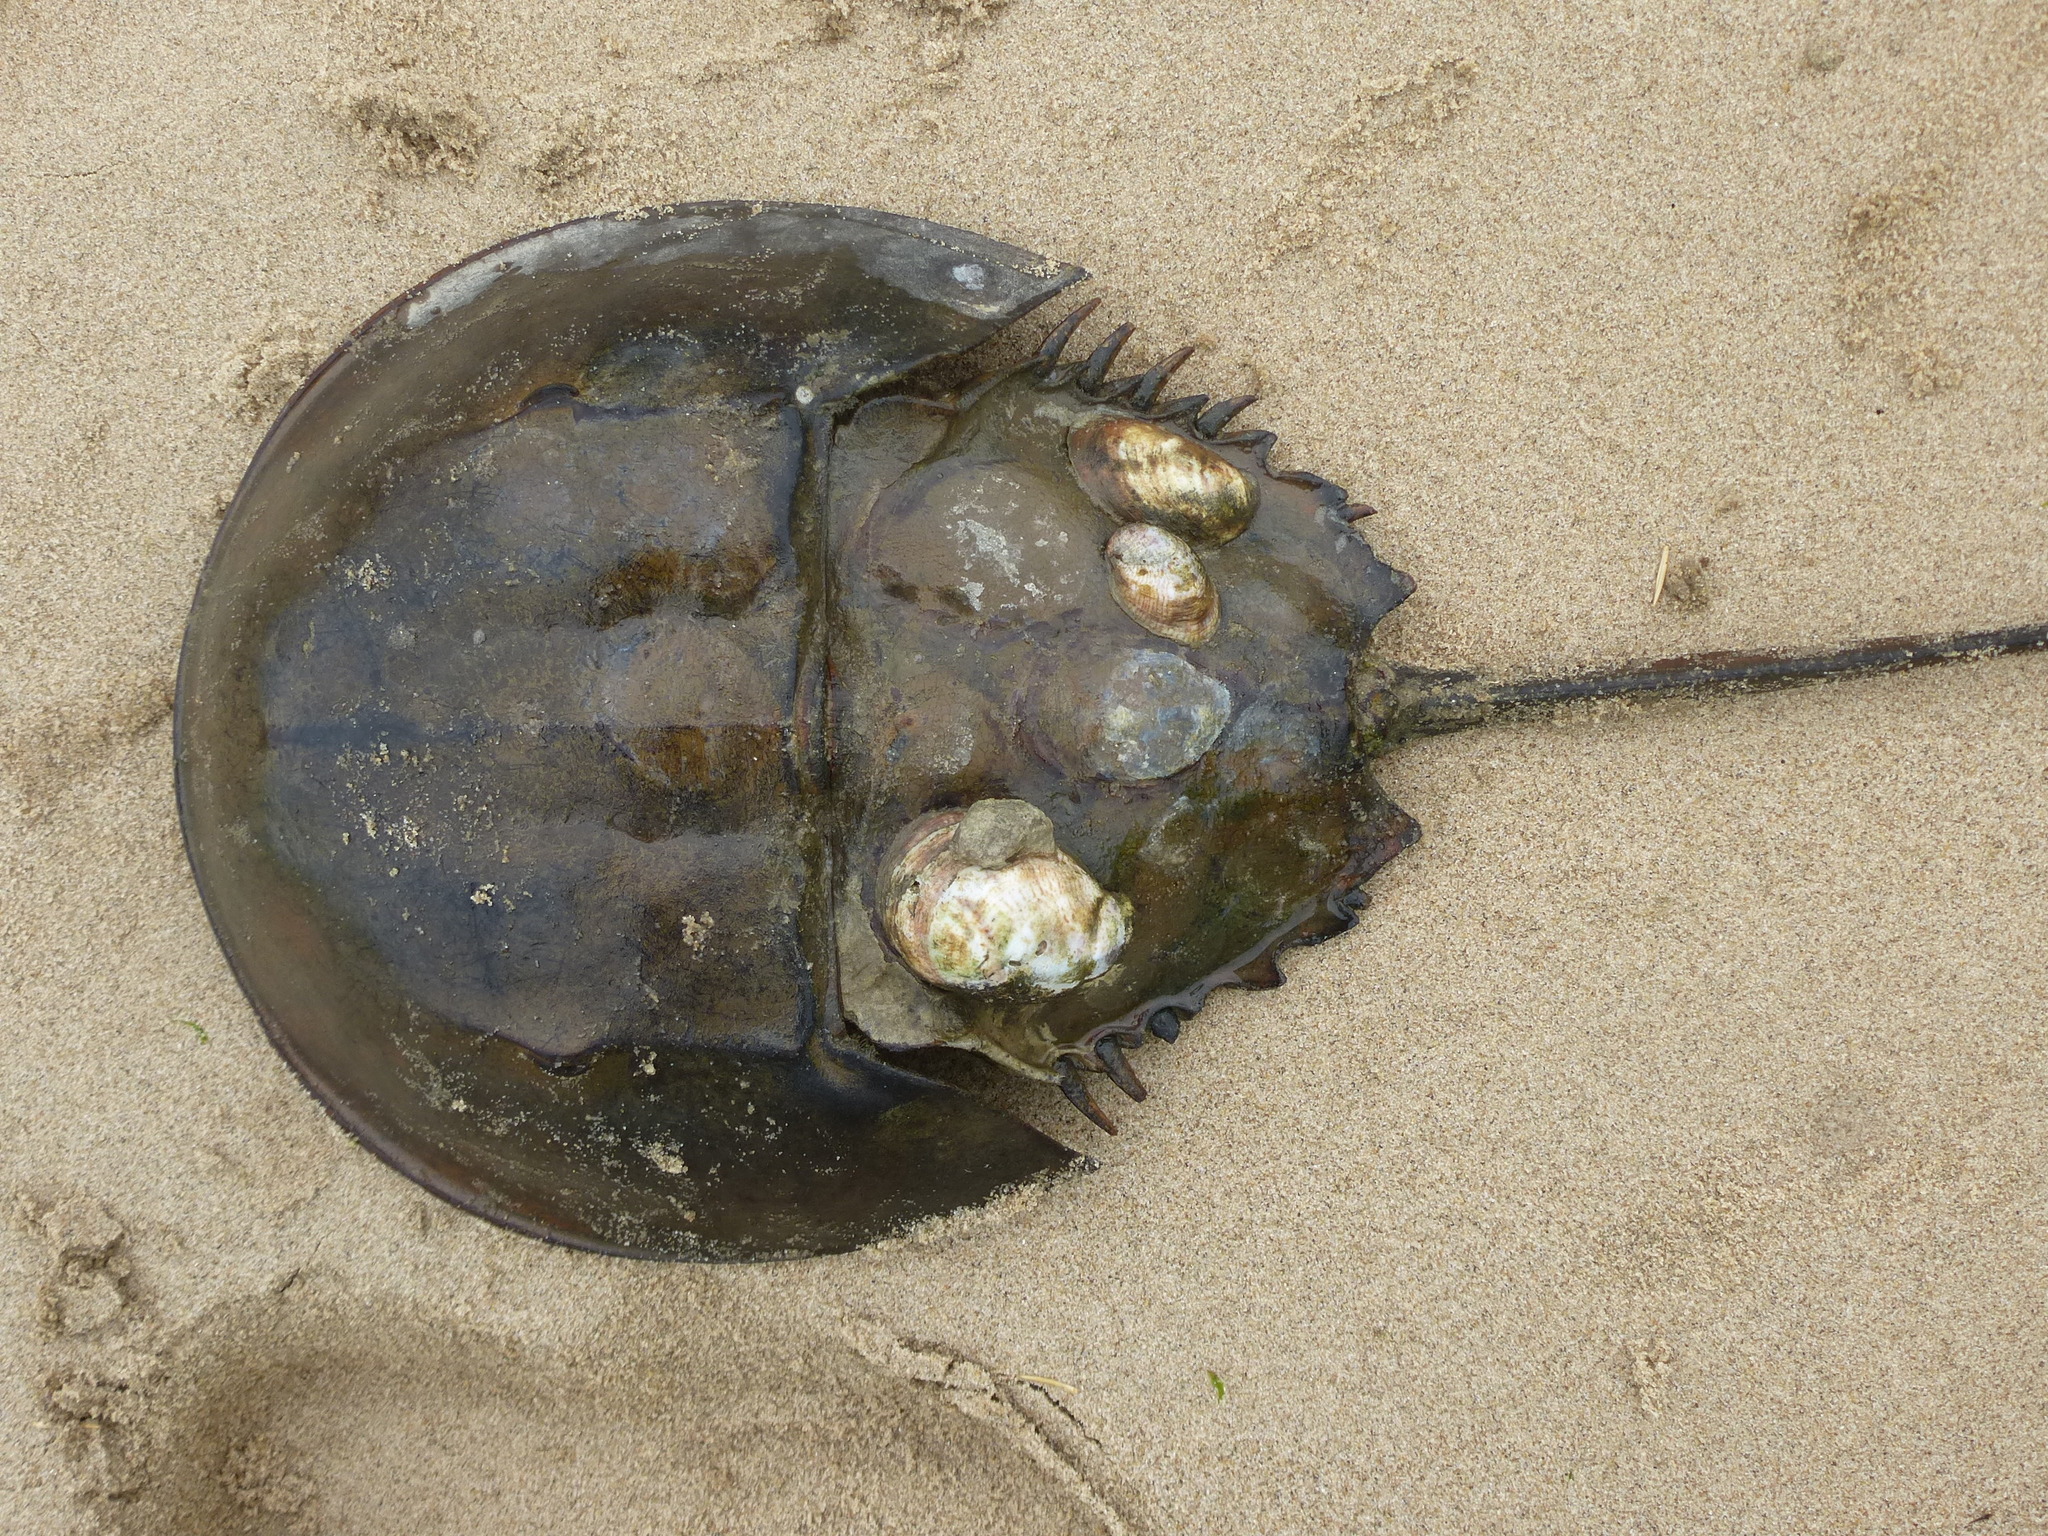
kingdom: Animalia
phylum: Arthropoda
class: Merostomata
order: Xiphosurida
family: Limulidae
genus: Limulus
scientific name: Limulus polyphemus
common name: Horseshoe crab
